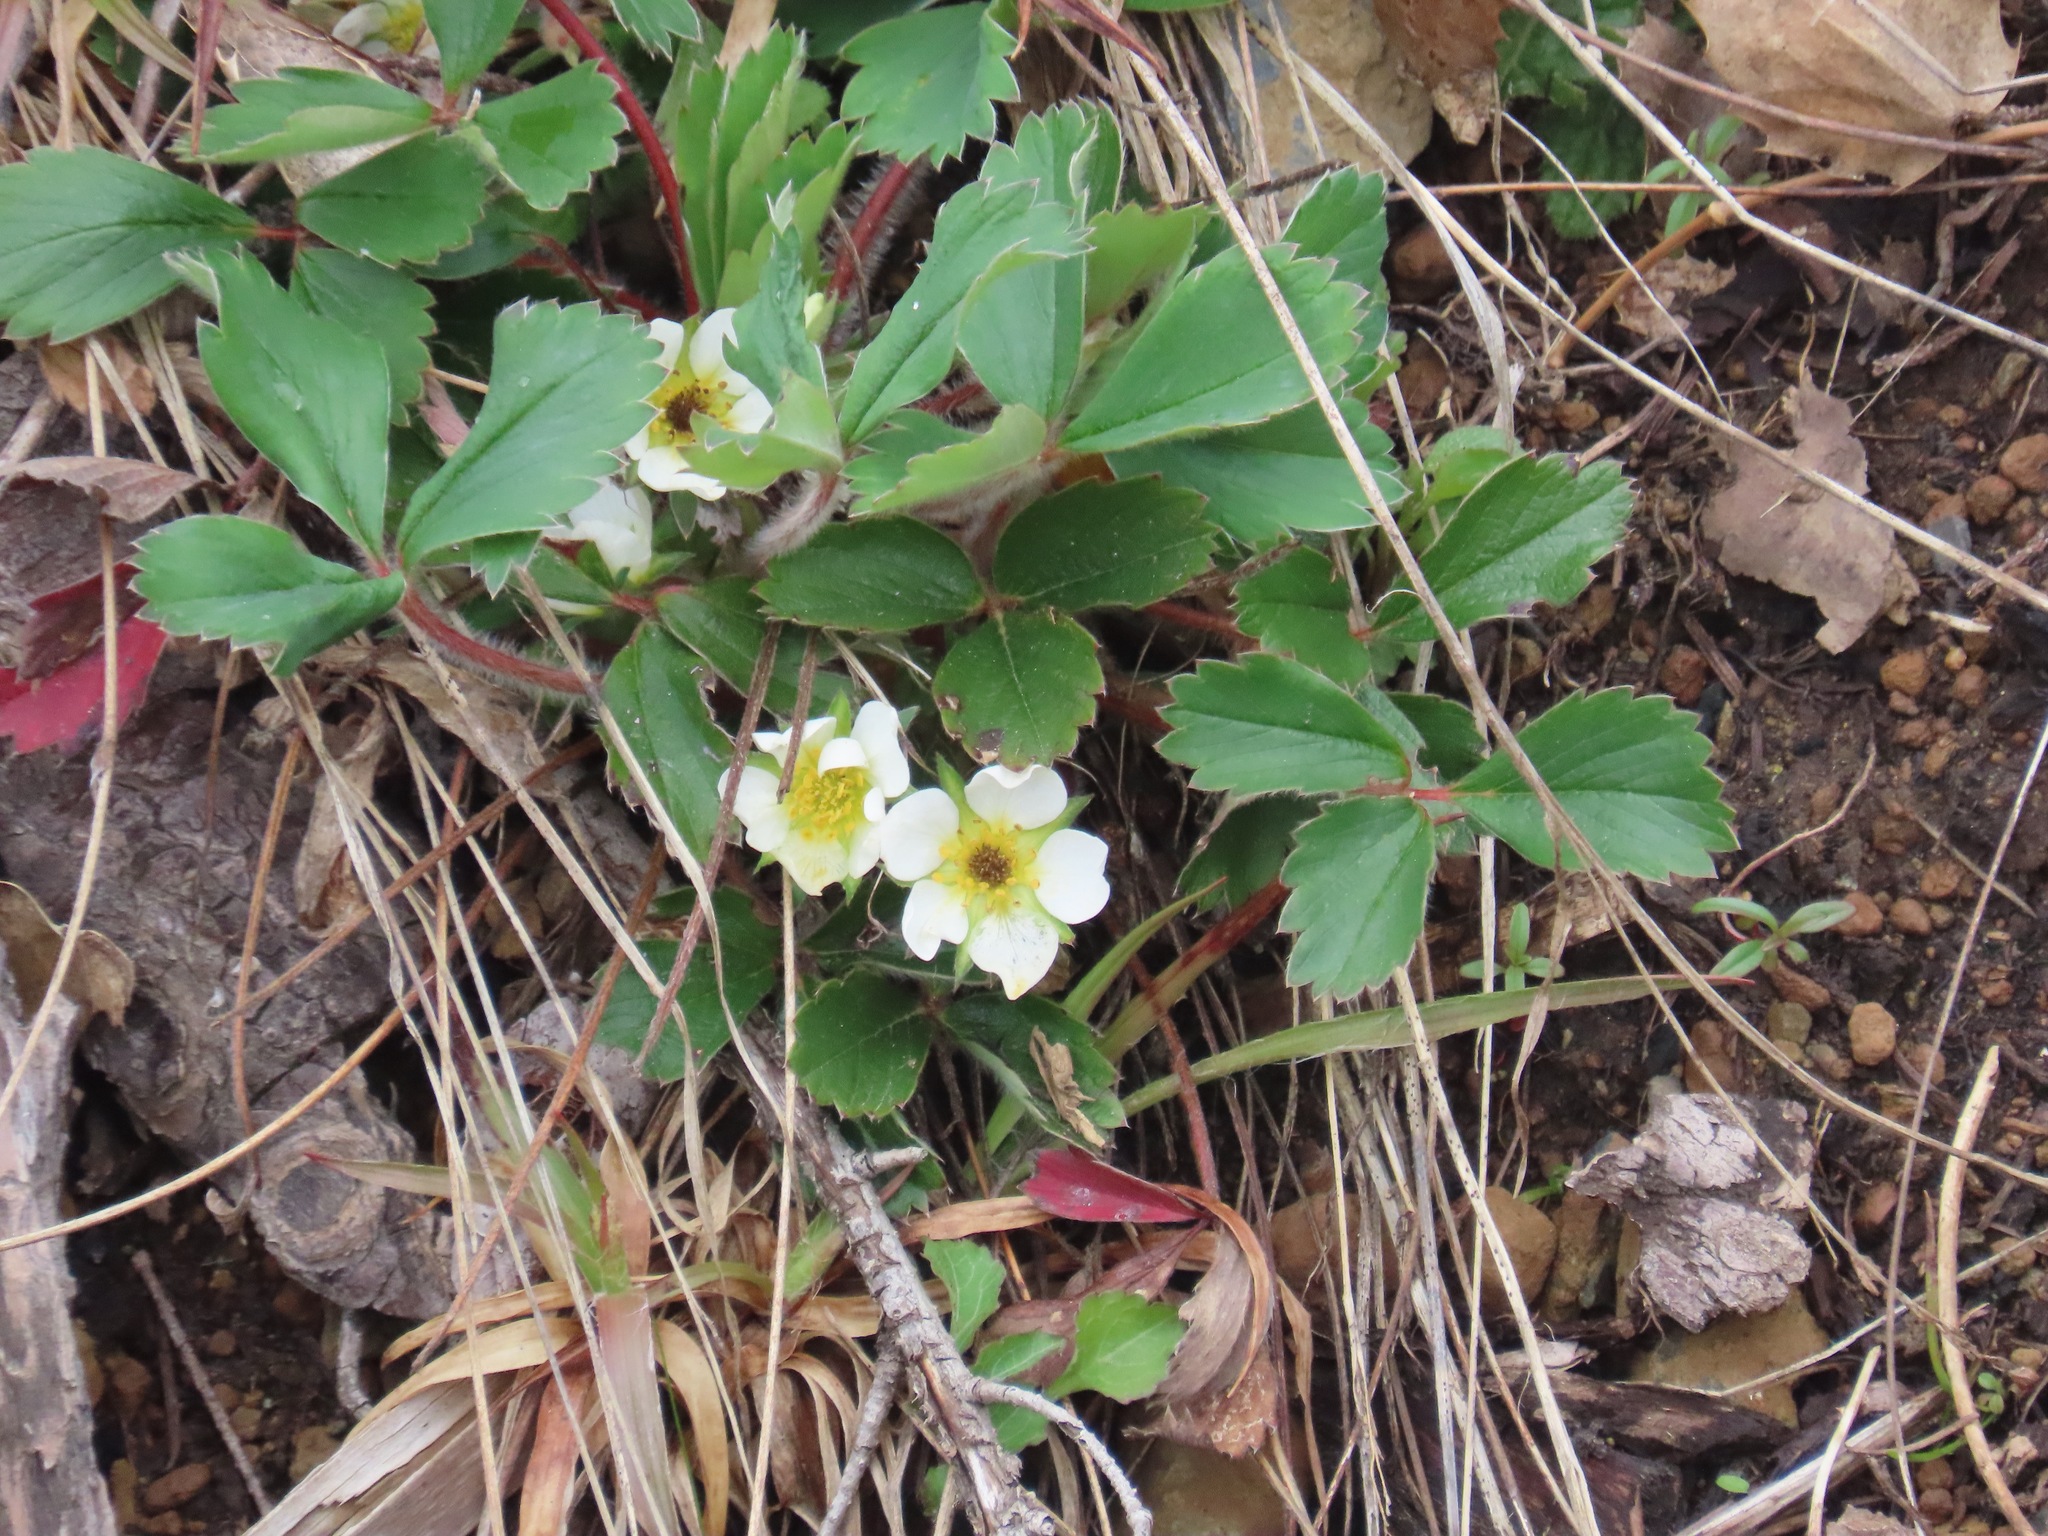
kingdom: Plantae
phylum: Tracheophyta
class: Magnoliopsida
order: Rosales
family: Rosaceae
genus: Fragaria
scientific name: Fragaria virginiana
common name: Thickleaved wild strawberry
